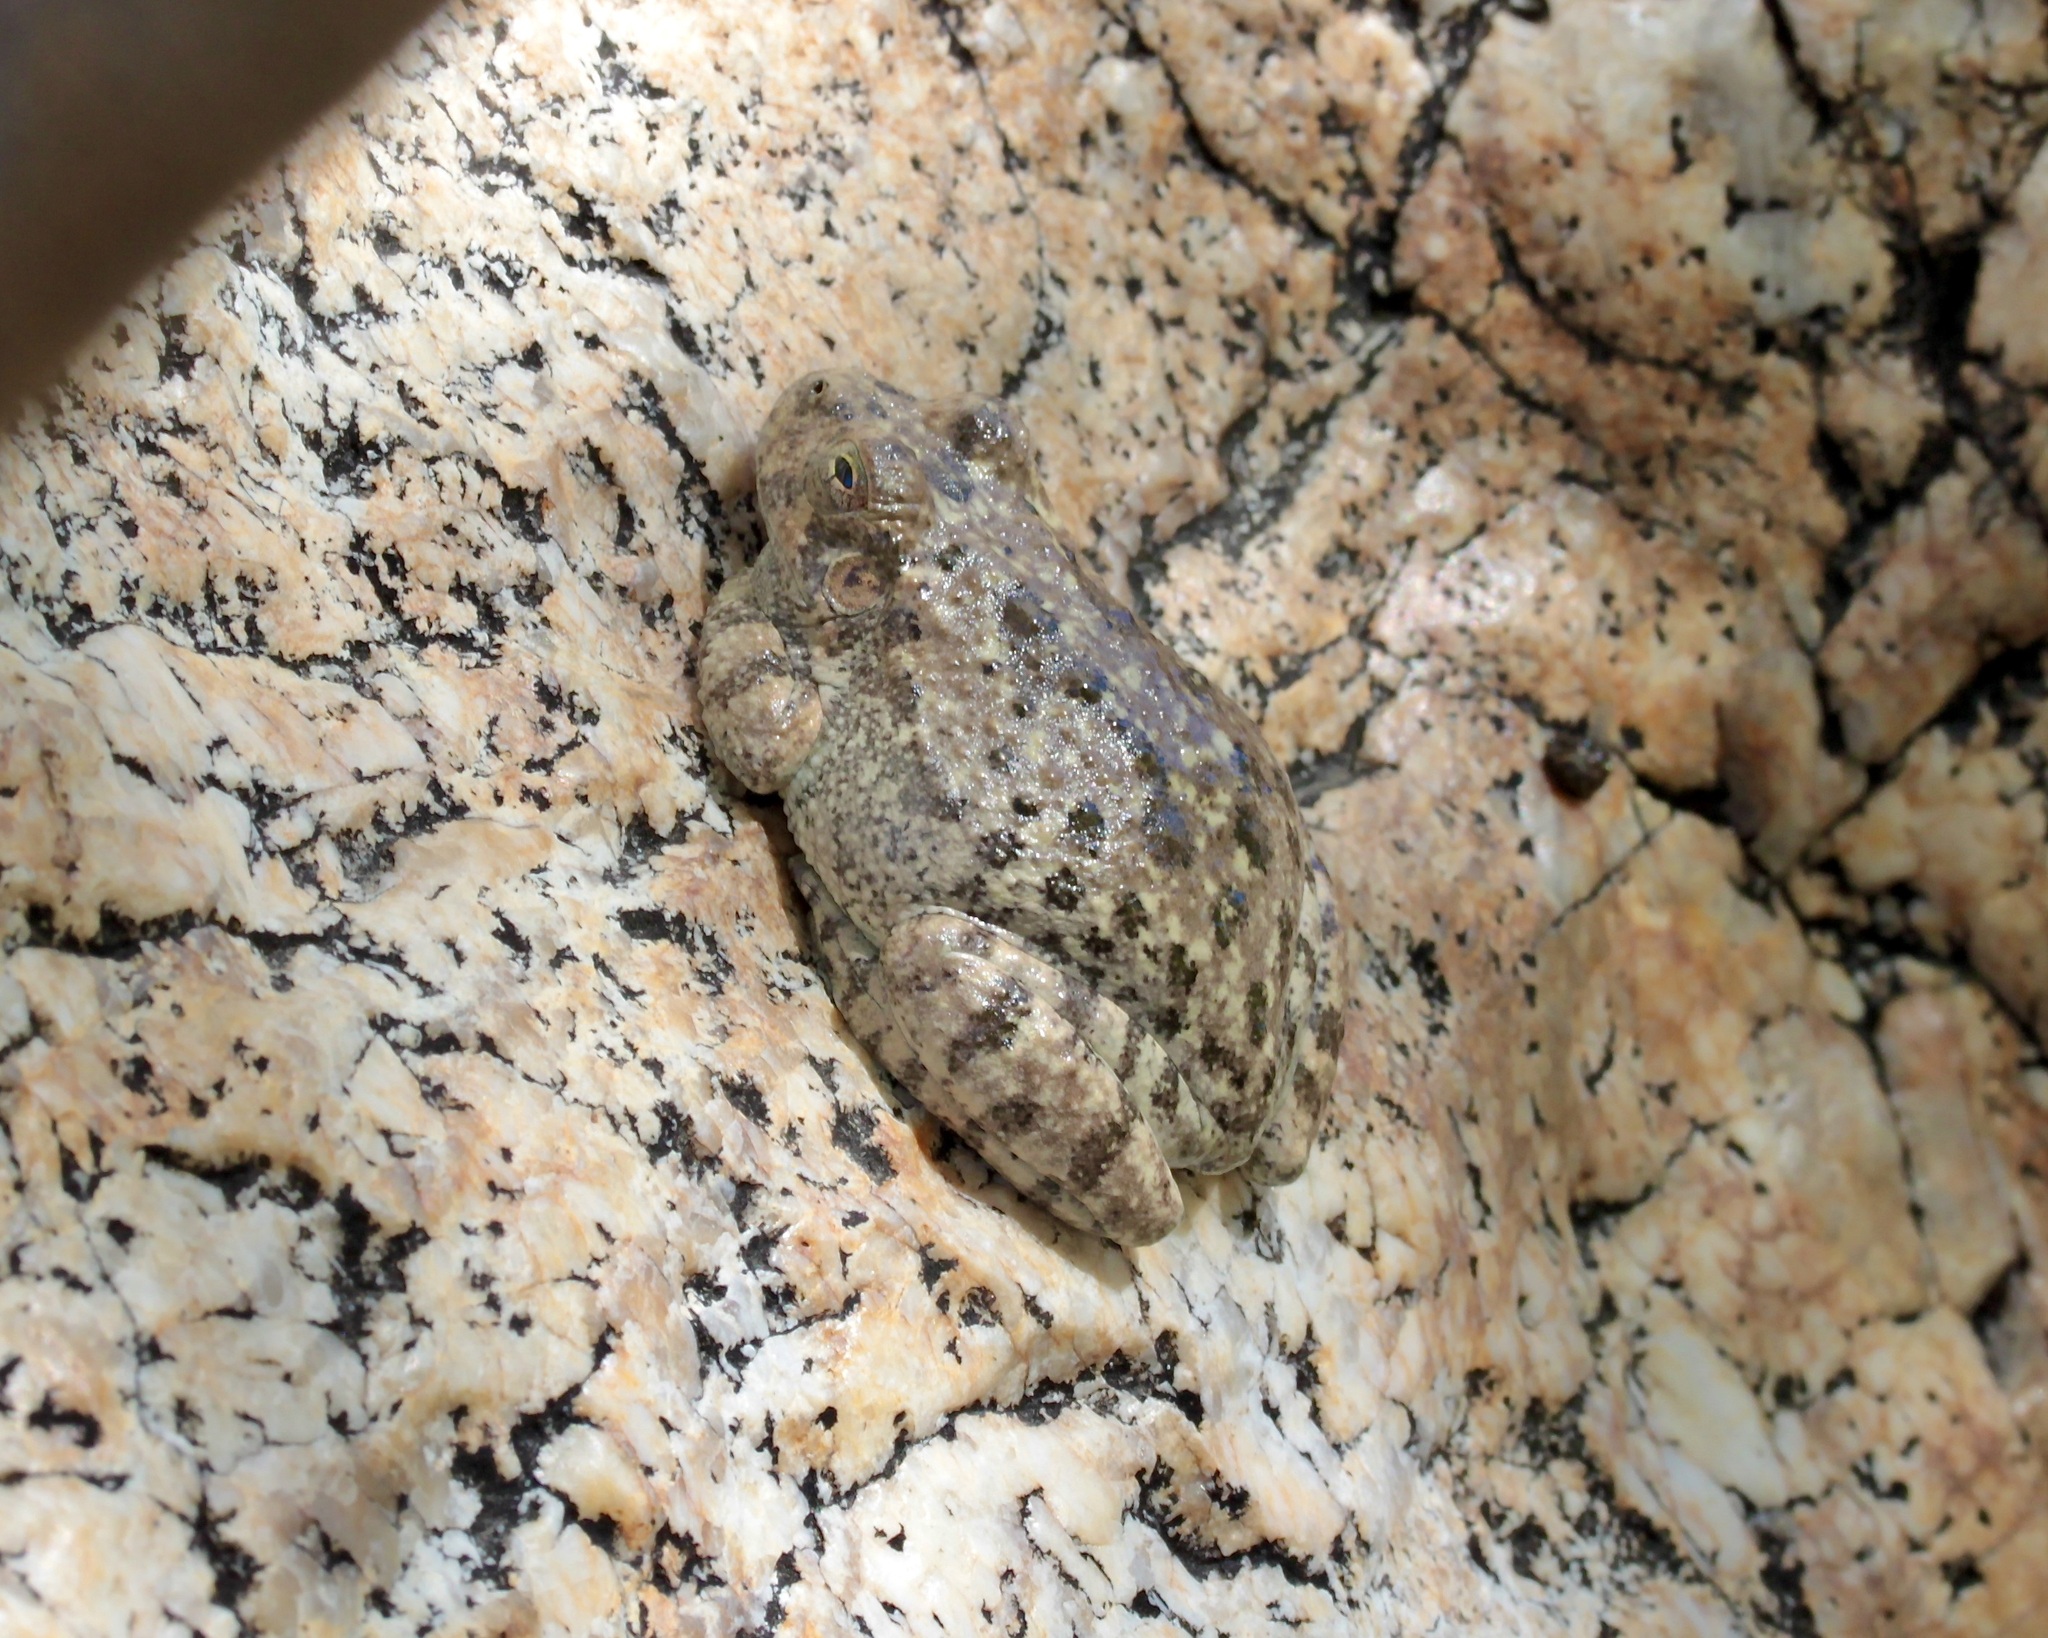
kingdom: Animalia
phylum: Chordata
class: Amphibia
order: Anura
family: Hylidae
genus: Dryophytes
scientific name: Dryophytes arenicolor
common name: Canyon treefrog
